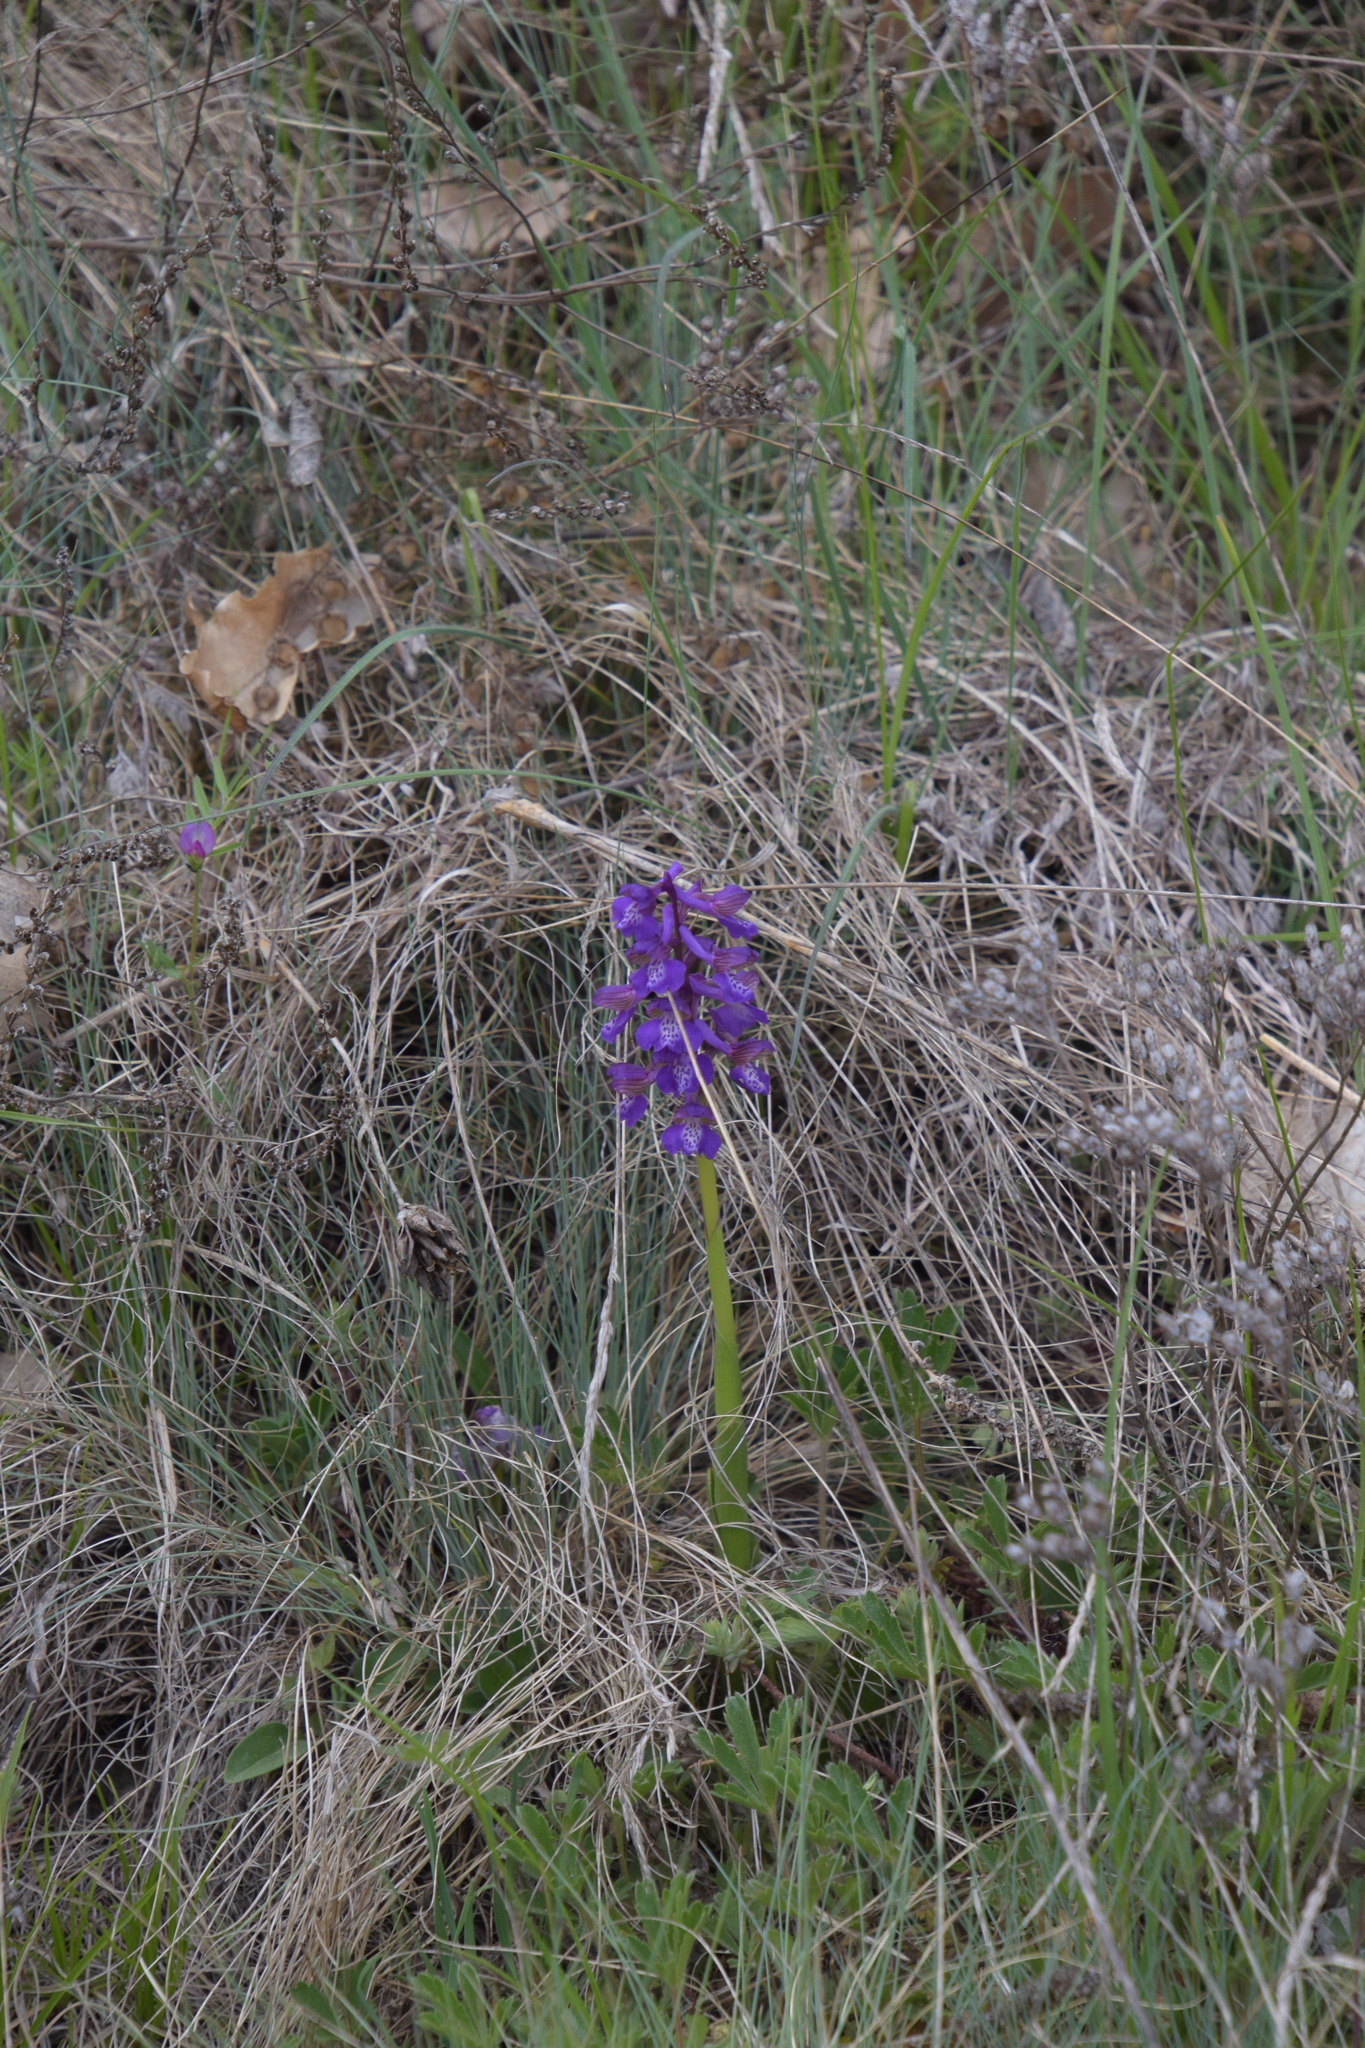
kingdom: Plantae
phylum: Tracheophyta
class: Liliopsida
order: Asparagales
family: Orchidaceae
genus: Anacamptis
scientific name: Anacamptis morio
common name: Green-winged orchid
